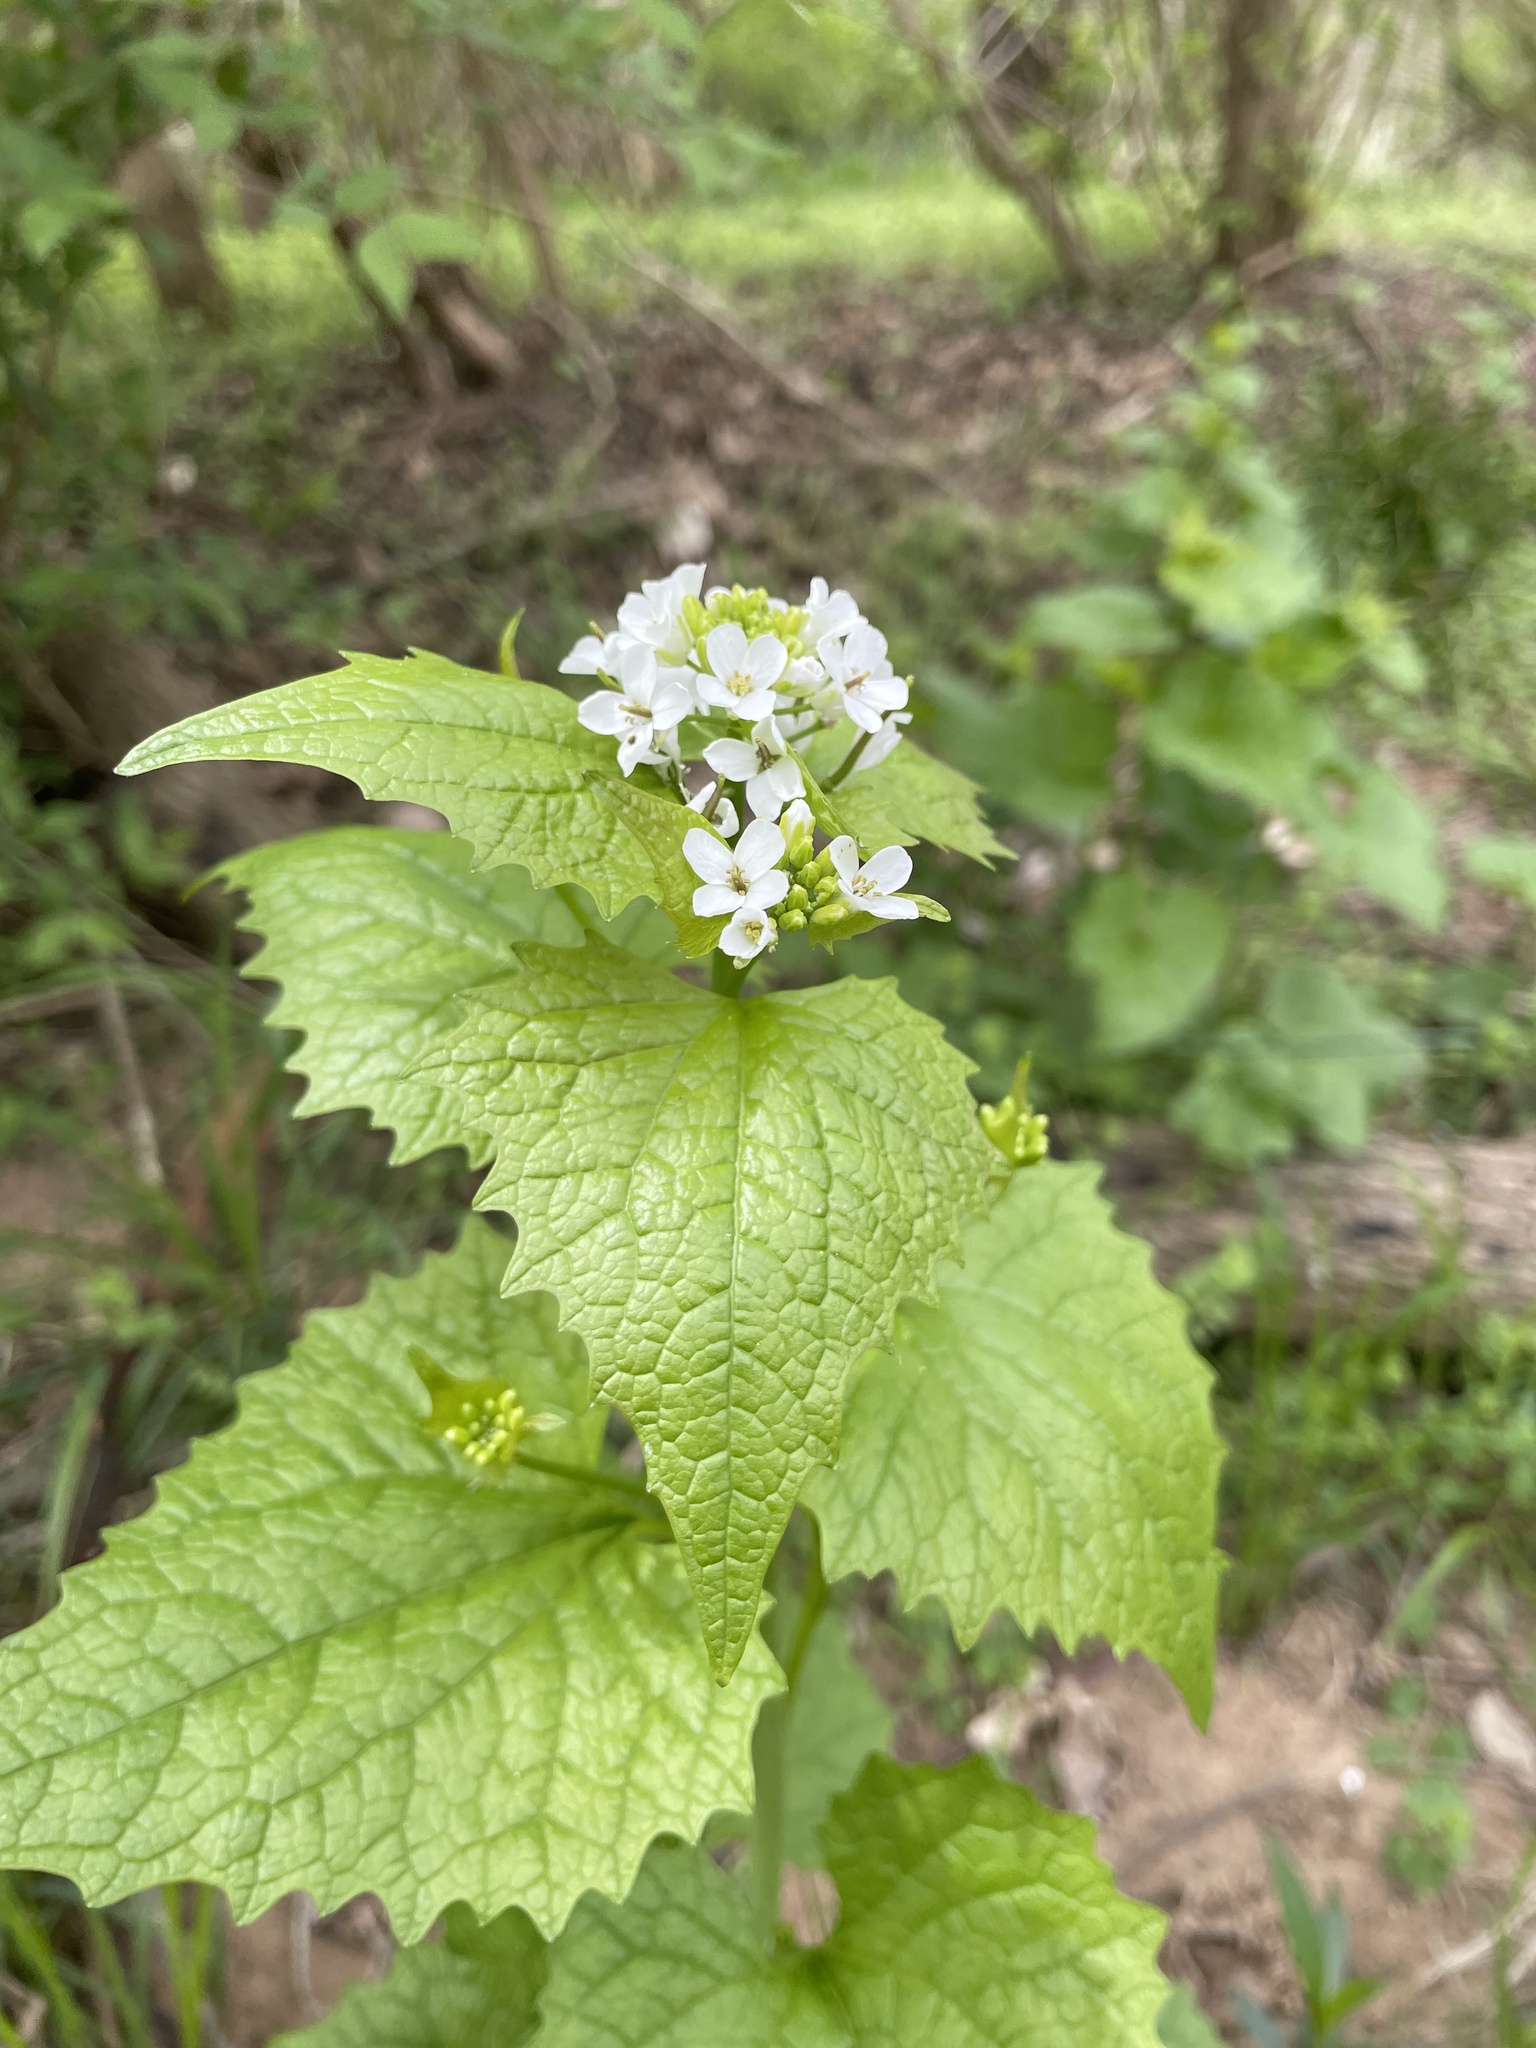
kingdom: Plantae
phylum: Tracheophyta
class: Magnoliopsida
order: Brassicales
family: Brassicaceae
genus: Alliaria
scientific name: Alliaria petiolata
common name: Garlic mustard
